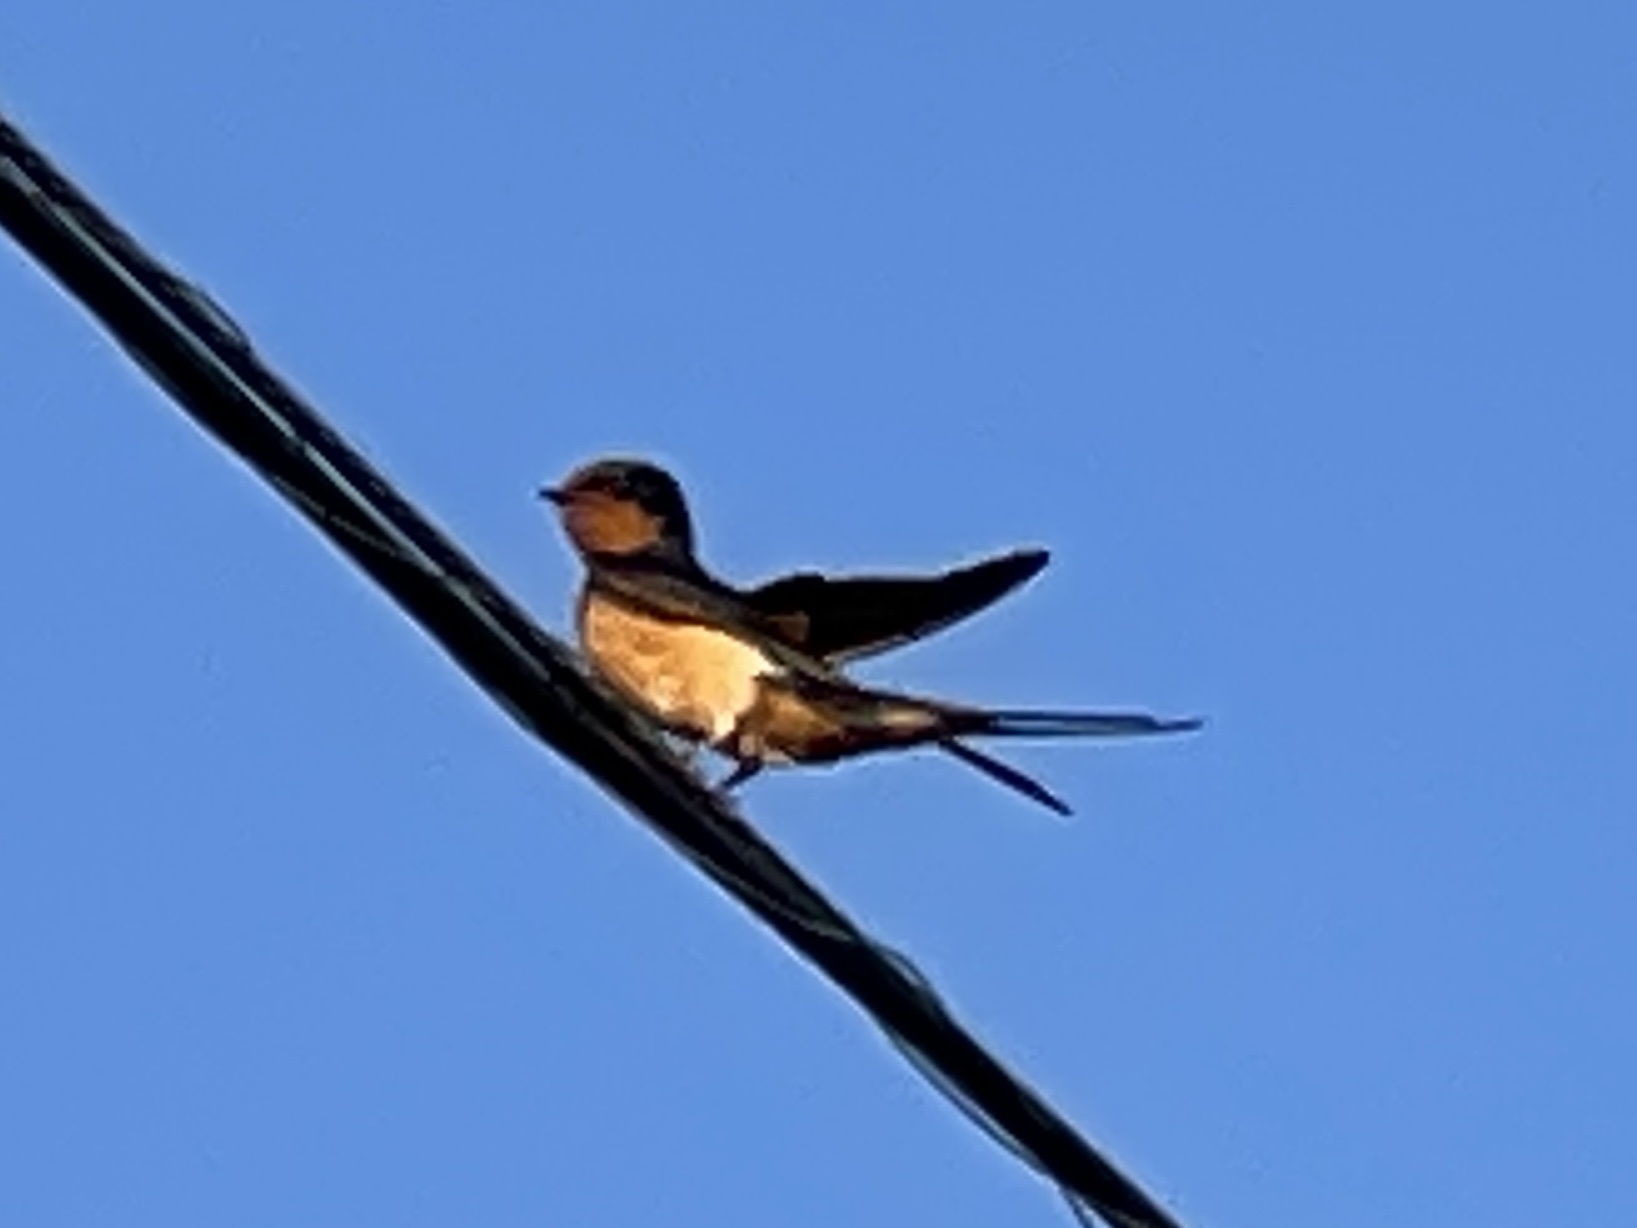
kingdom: Animalia
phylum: Chordata
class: Aves
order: Passeriformes
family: Hirundinidae
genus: Hirundo
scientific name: Hirundo rustica
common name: Barn swallow
